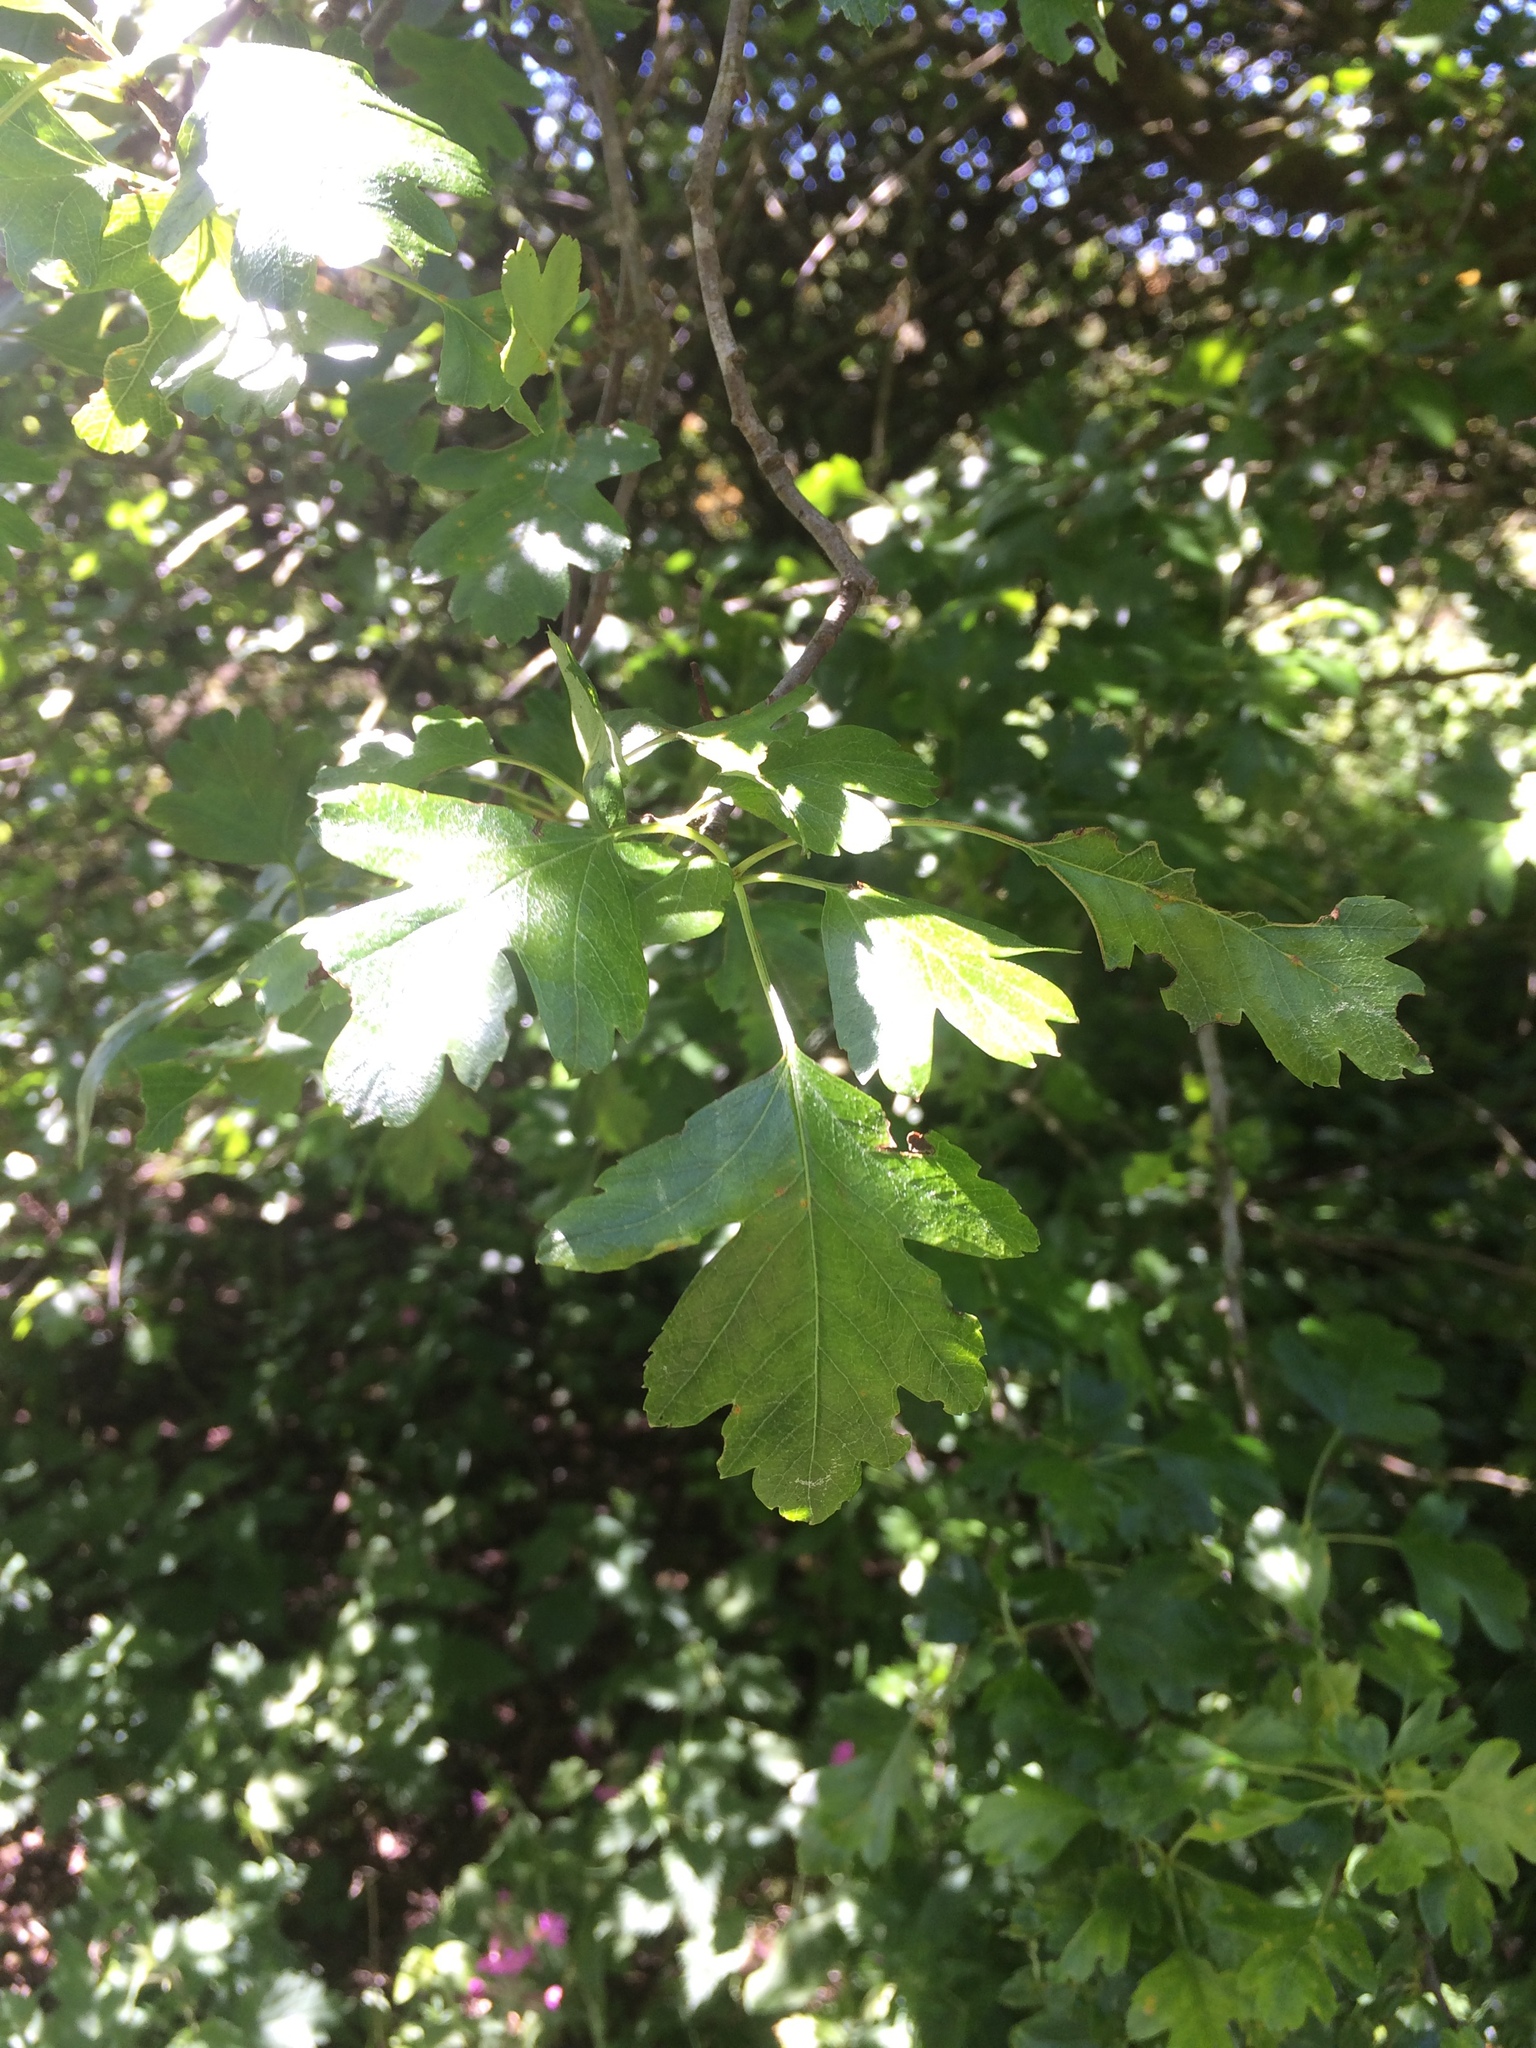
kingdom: Plantae
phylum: Tracheophyta
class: Magnoliopsida
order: Rosales
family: Rosaceae
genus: Crataegus
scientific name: Crataegus monogyna
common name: Hawthorn
